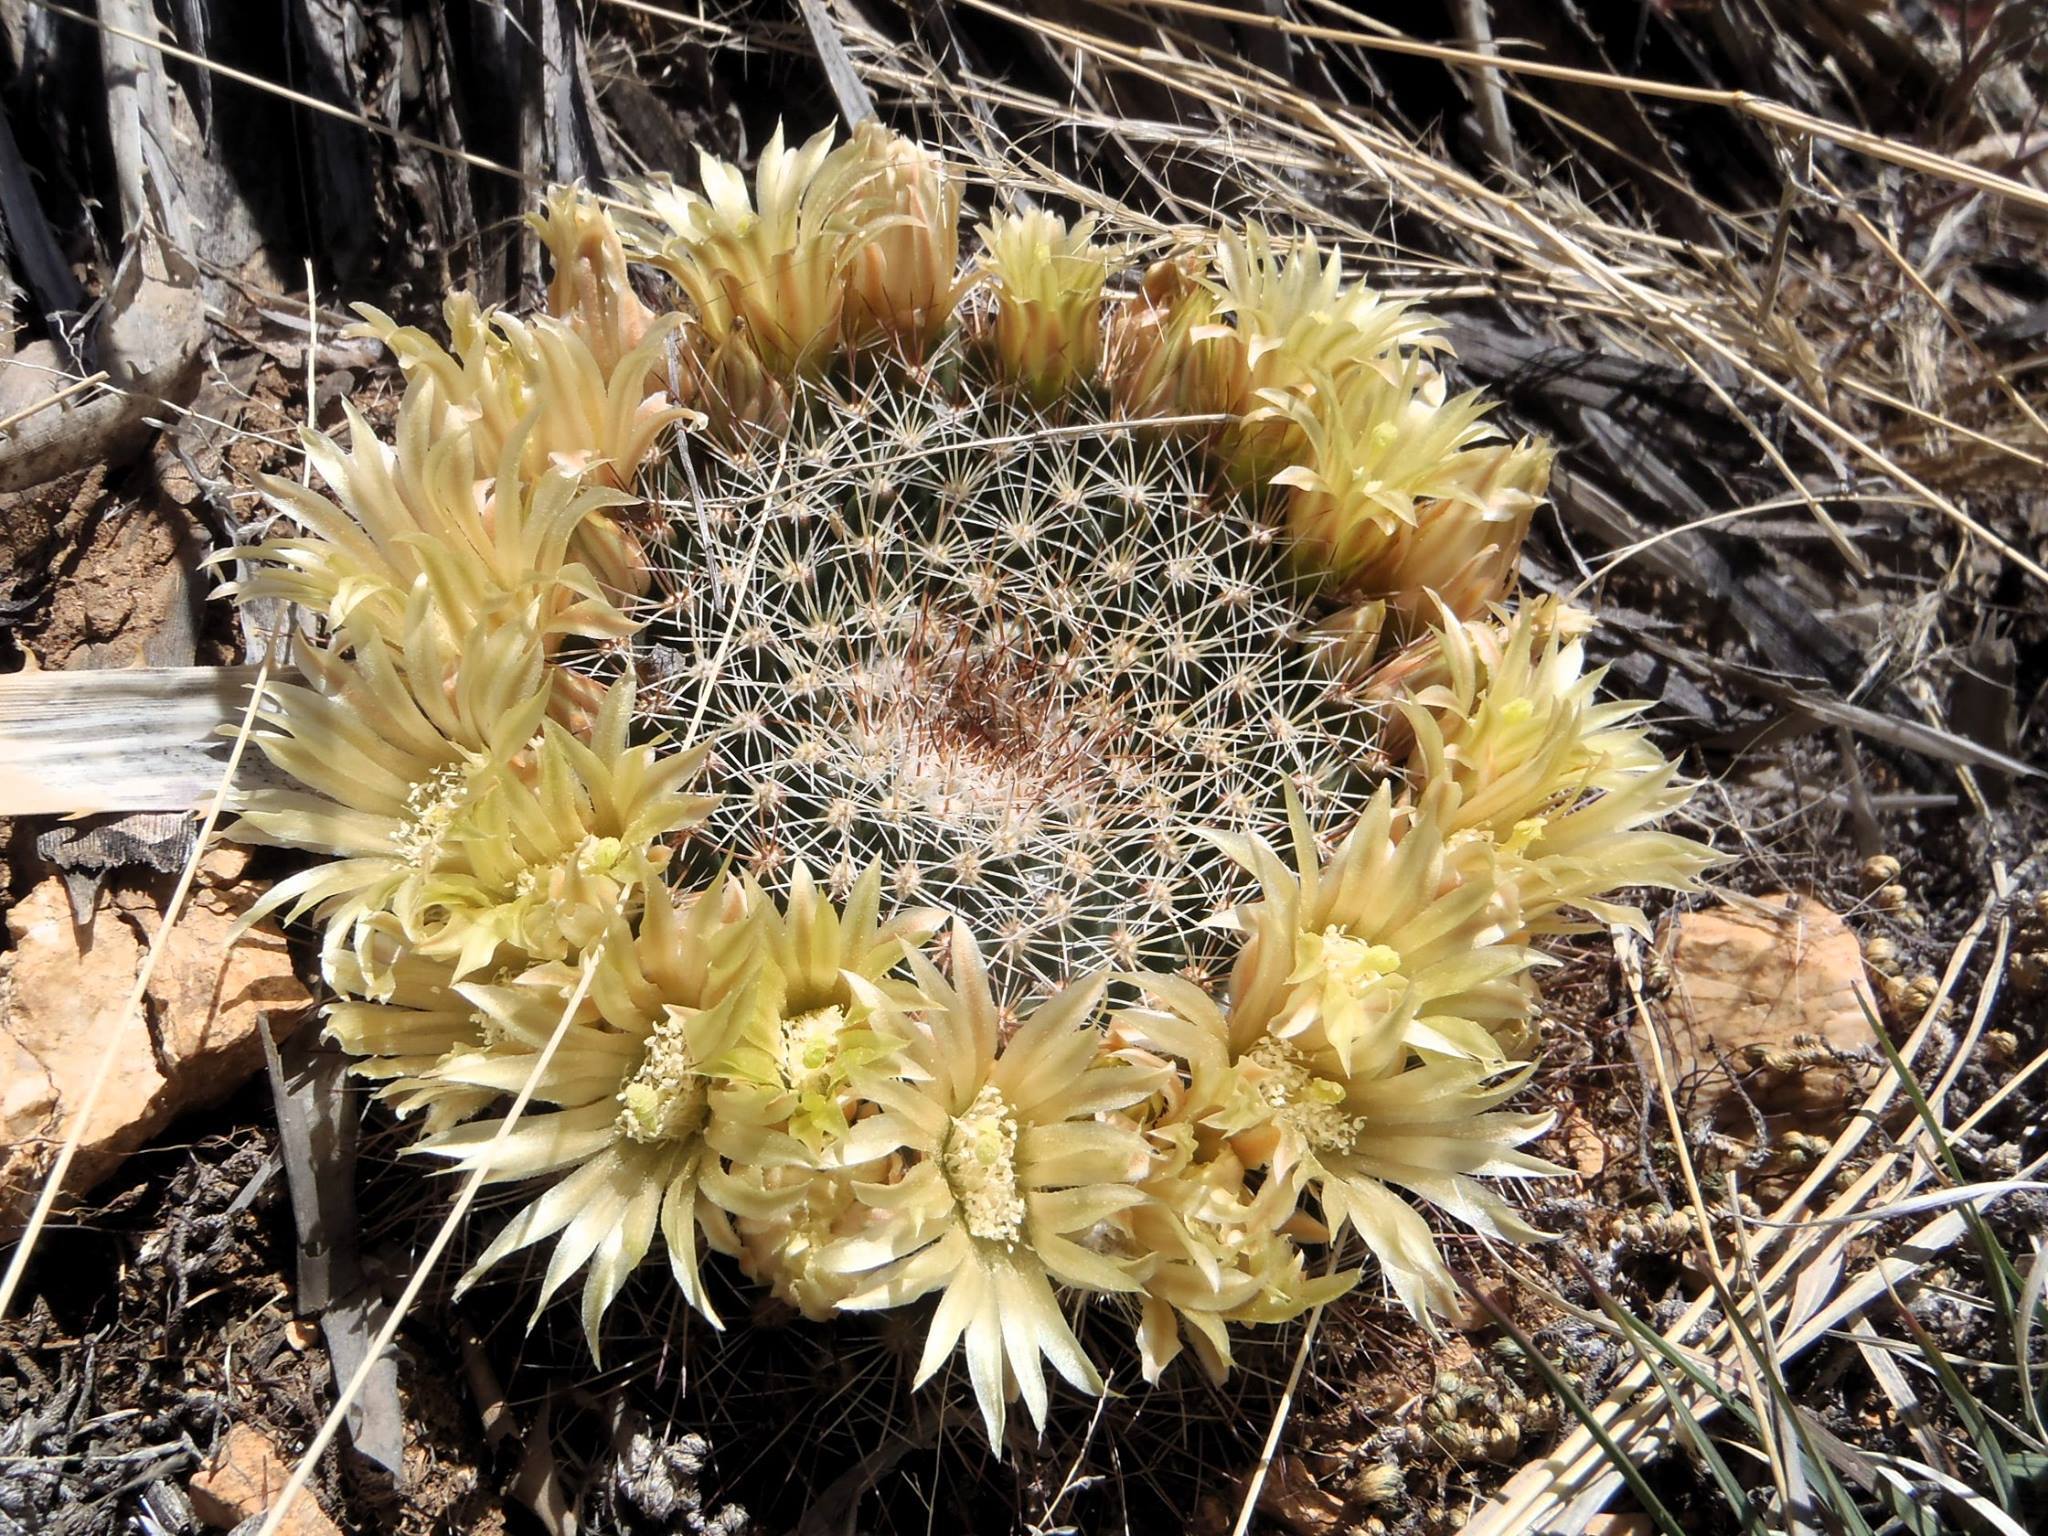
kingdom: Plantae
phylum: Tracheophyta
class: Magnoliopsida
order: Caryophyllales
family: Cactaceae
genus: Mammillaria
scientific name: Mammillaria heyderi
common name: Little nipple cactus
